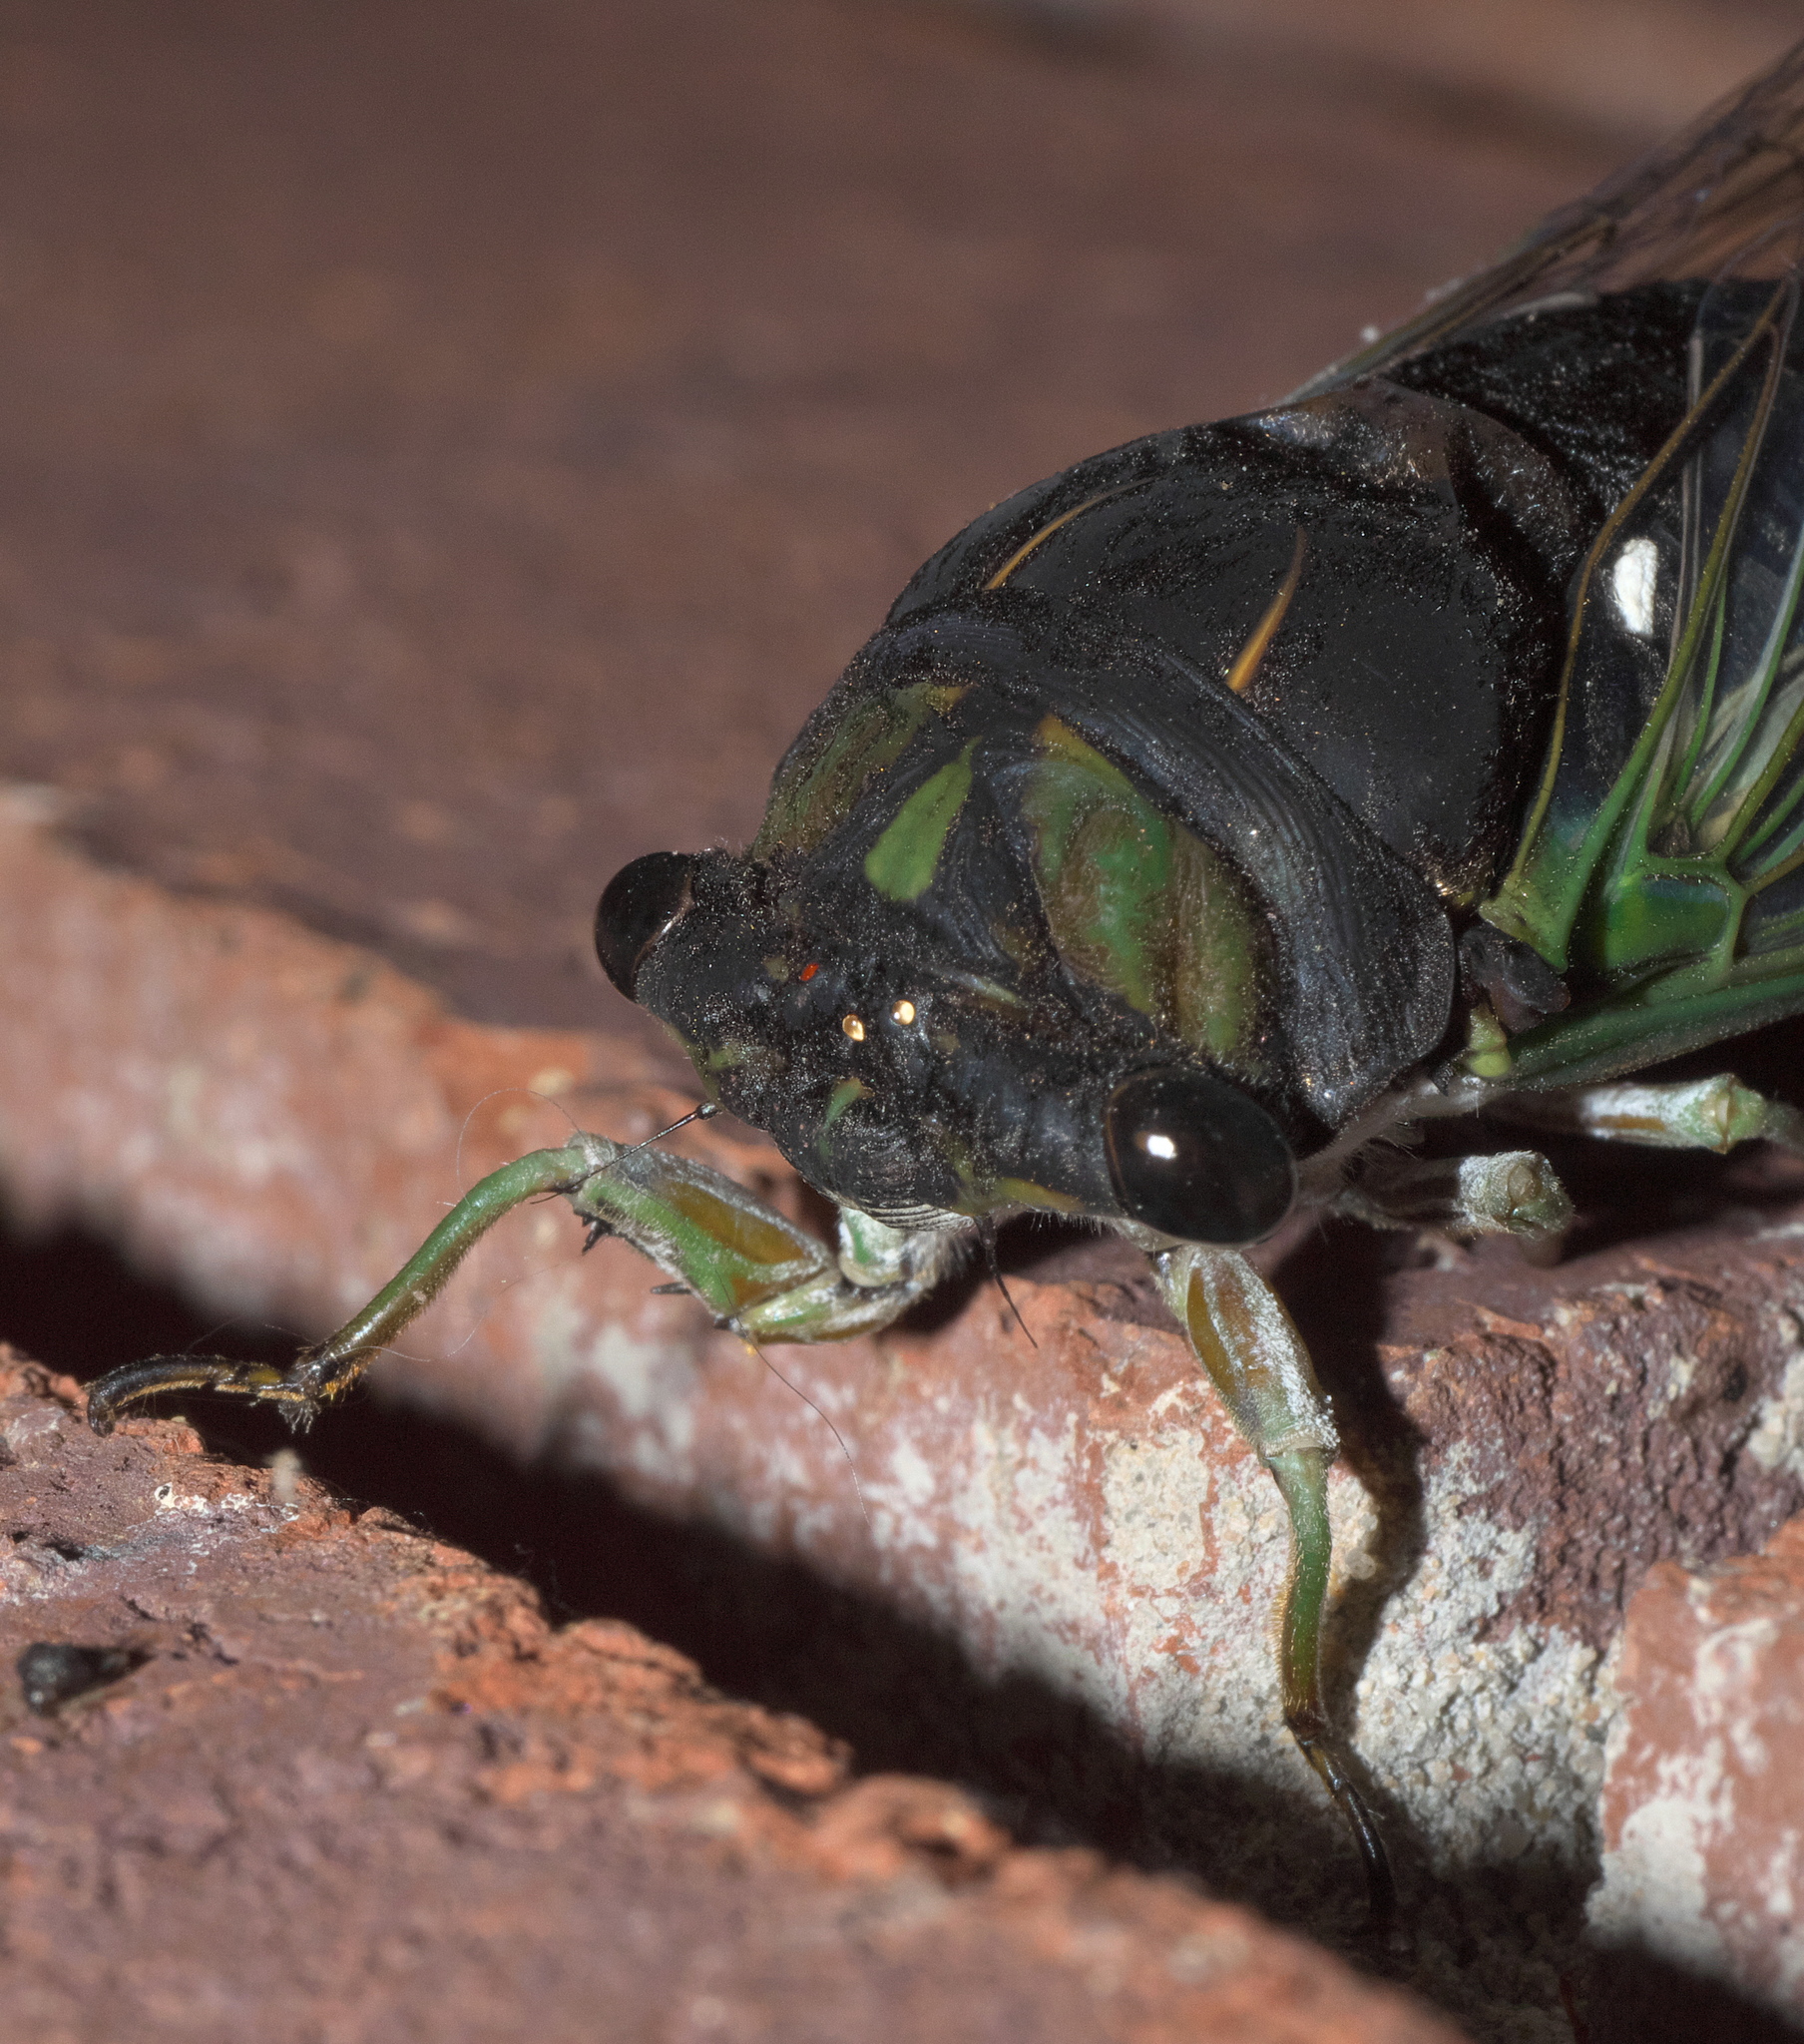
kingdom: Animalia
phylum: Arthropoda
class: Insecta
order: Hemiptera
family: Cicadidae
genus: Neotibicen
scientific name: Neotibicen tibicen
